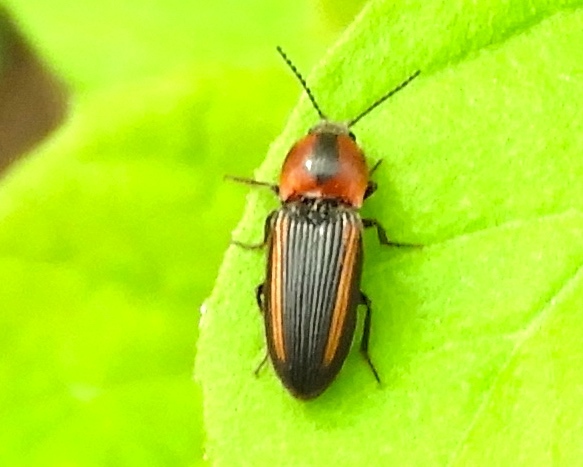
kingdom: Animalia
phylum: Arthropoda
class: Insecta
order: Coleoptera
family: Elateridae
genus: Cardiophorus
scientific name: Cardiophorus aptopoides
